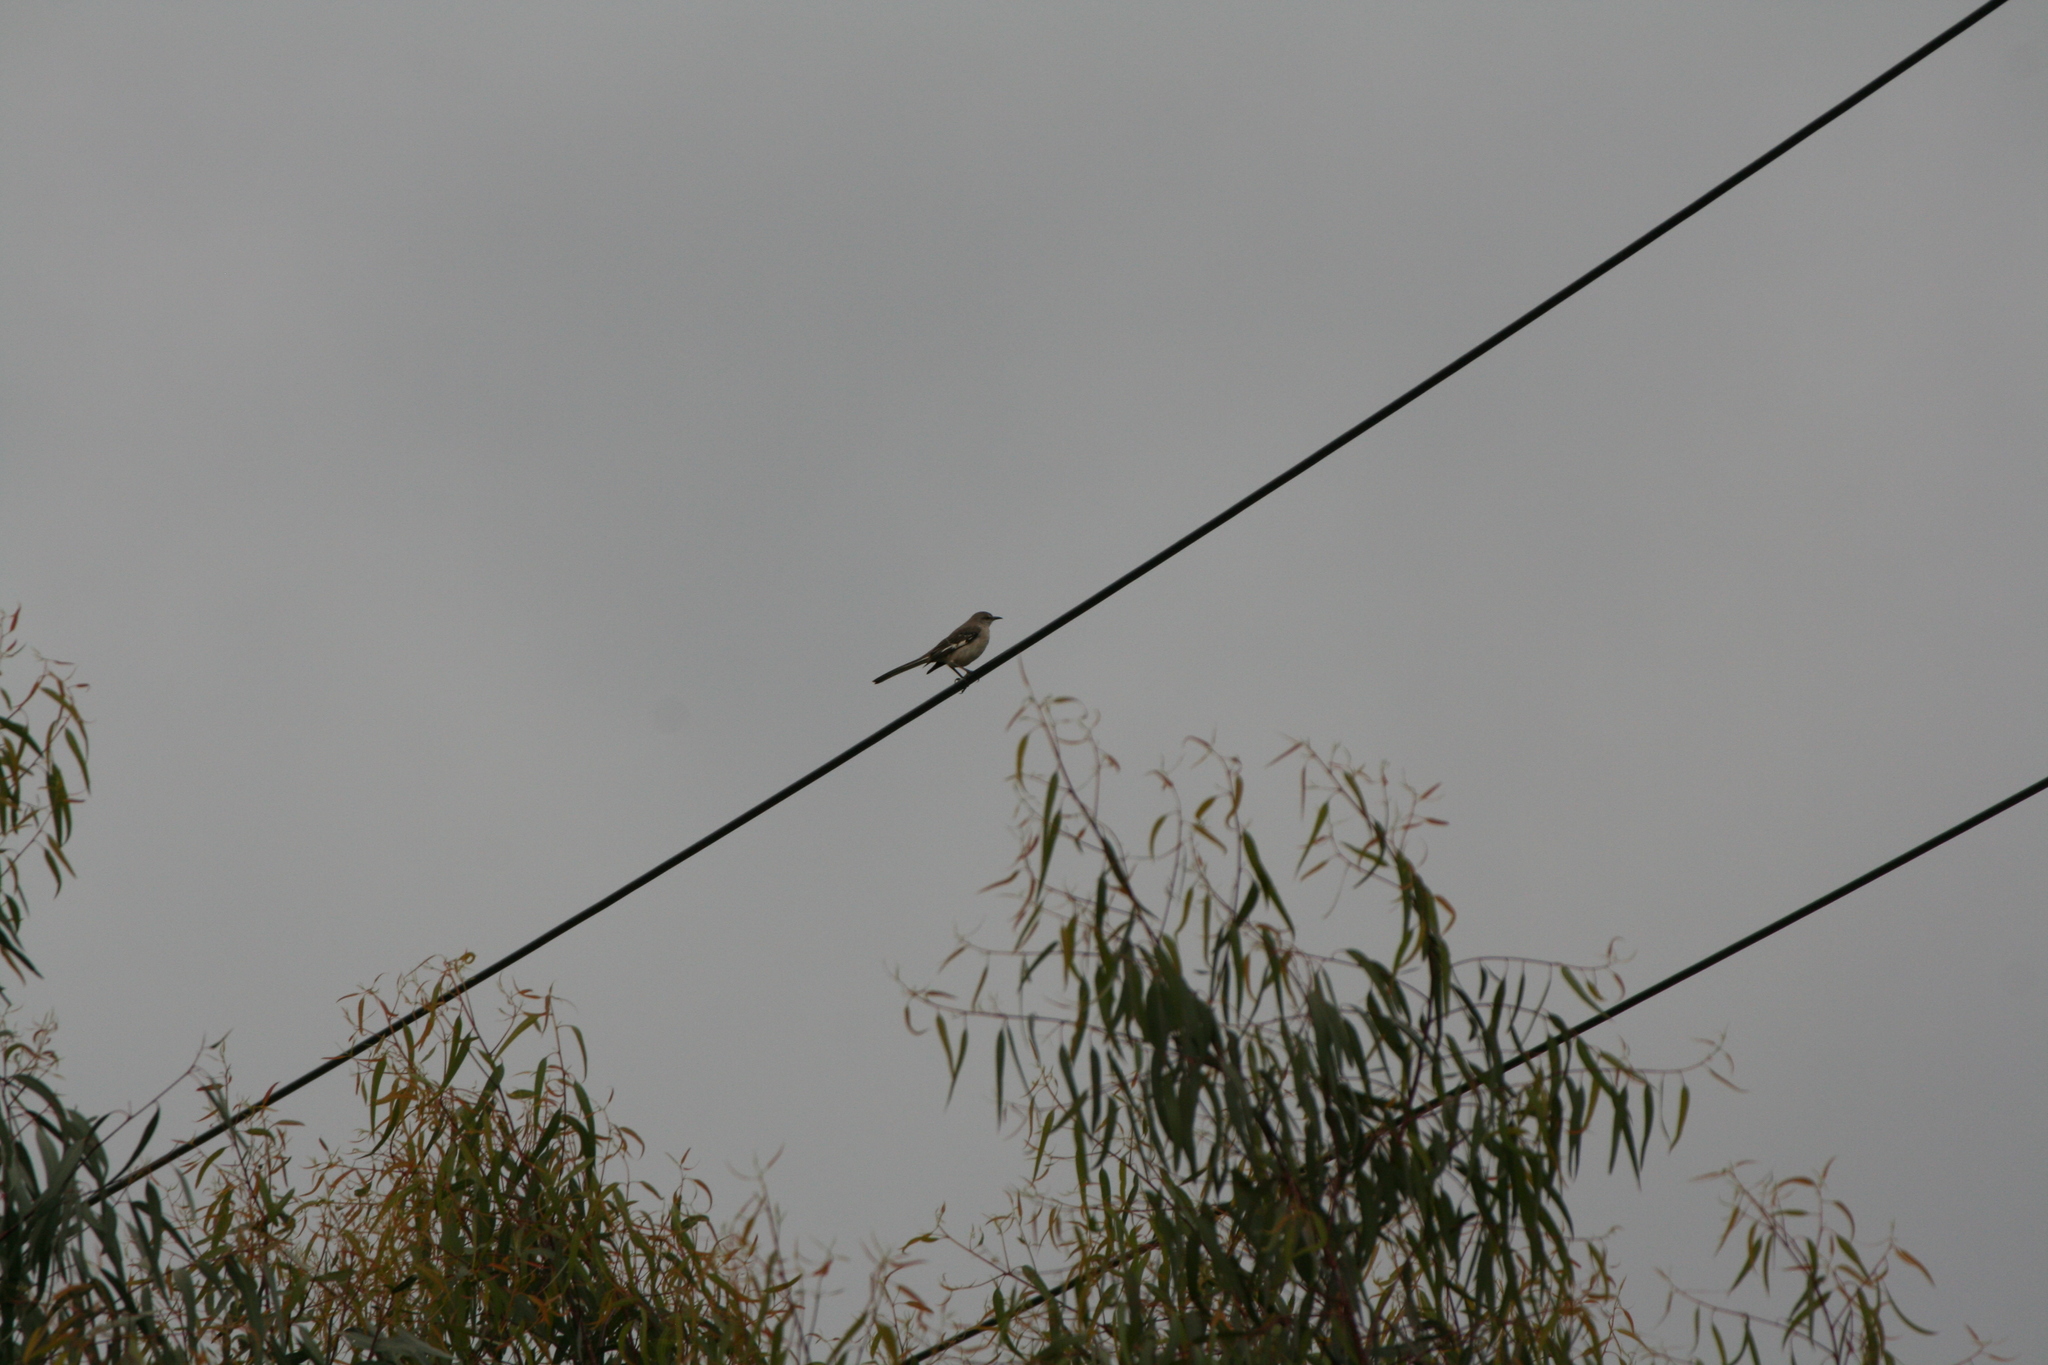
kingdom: Animalia
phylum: Chordata
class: Aves
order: Passeriformes
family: Mimidae
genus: Mimus
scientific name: Mimus polyglottos
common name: Northern mockingbird
